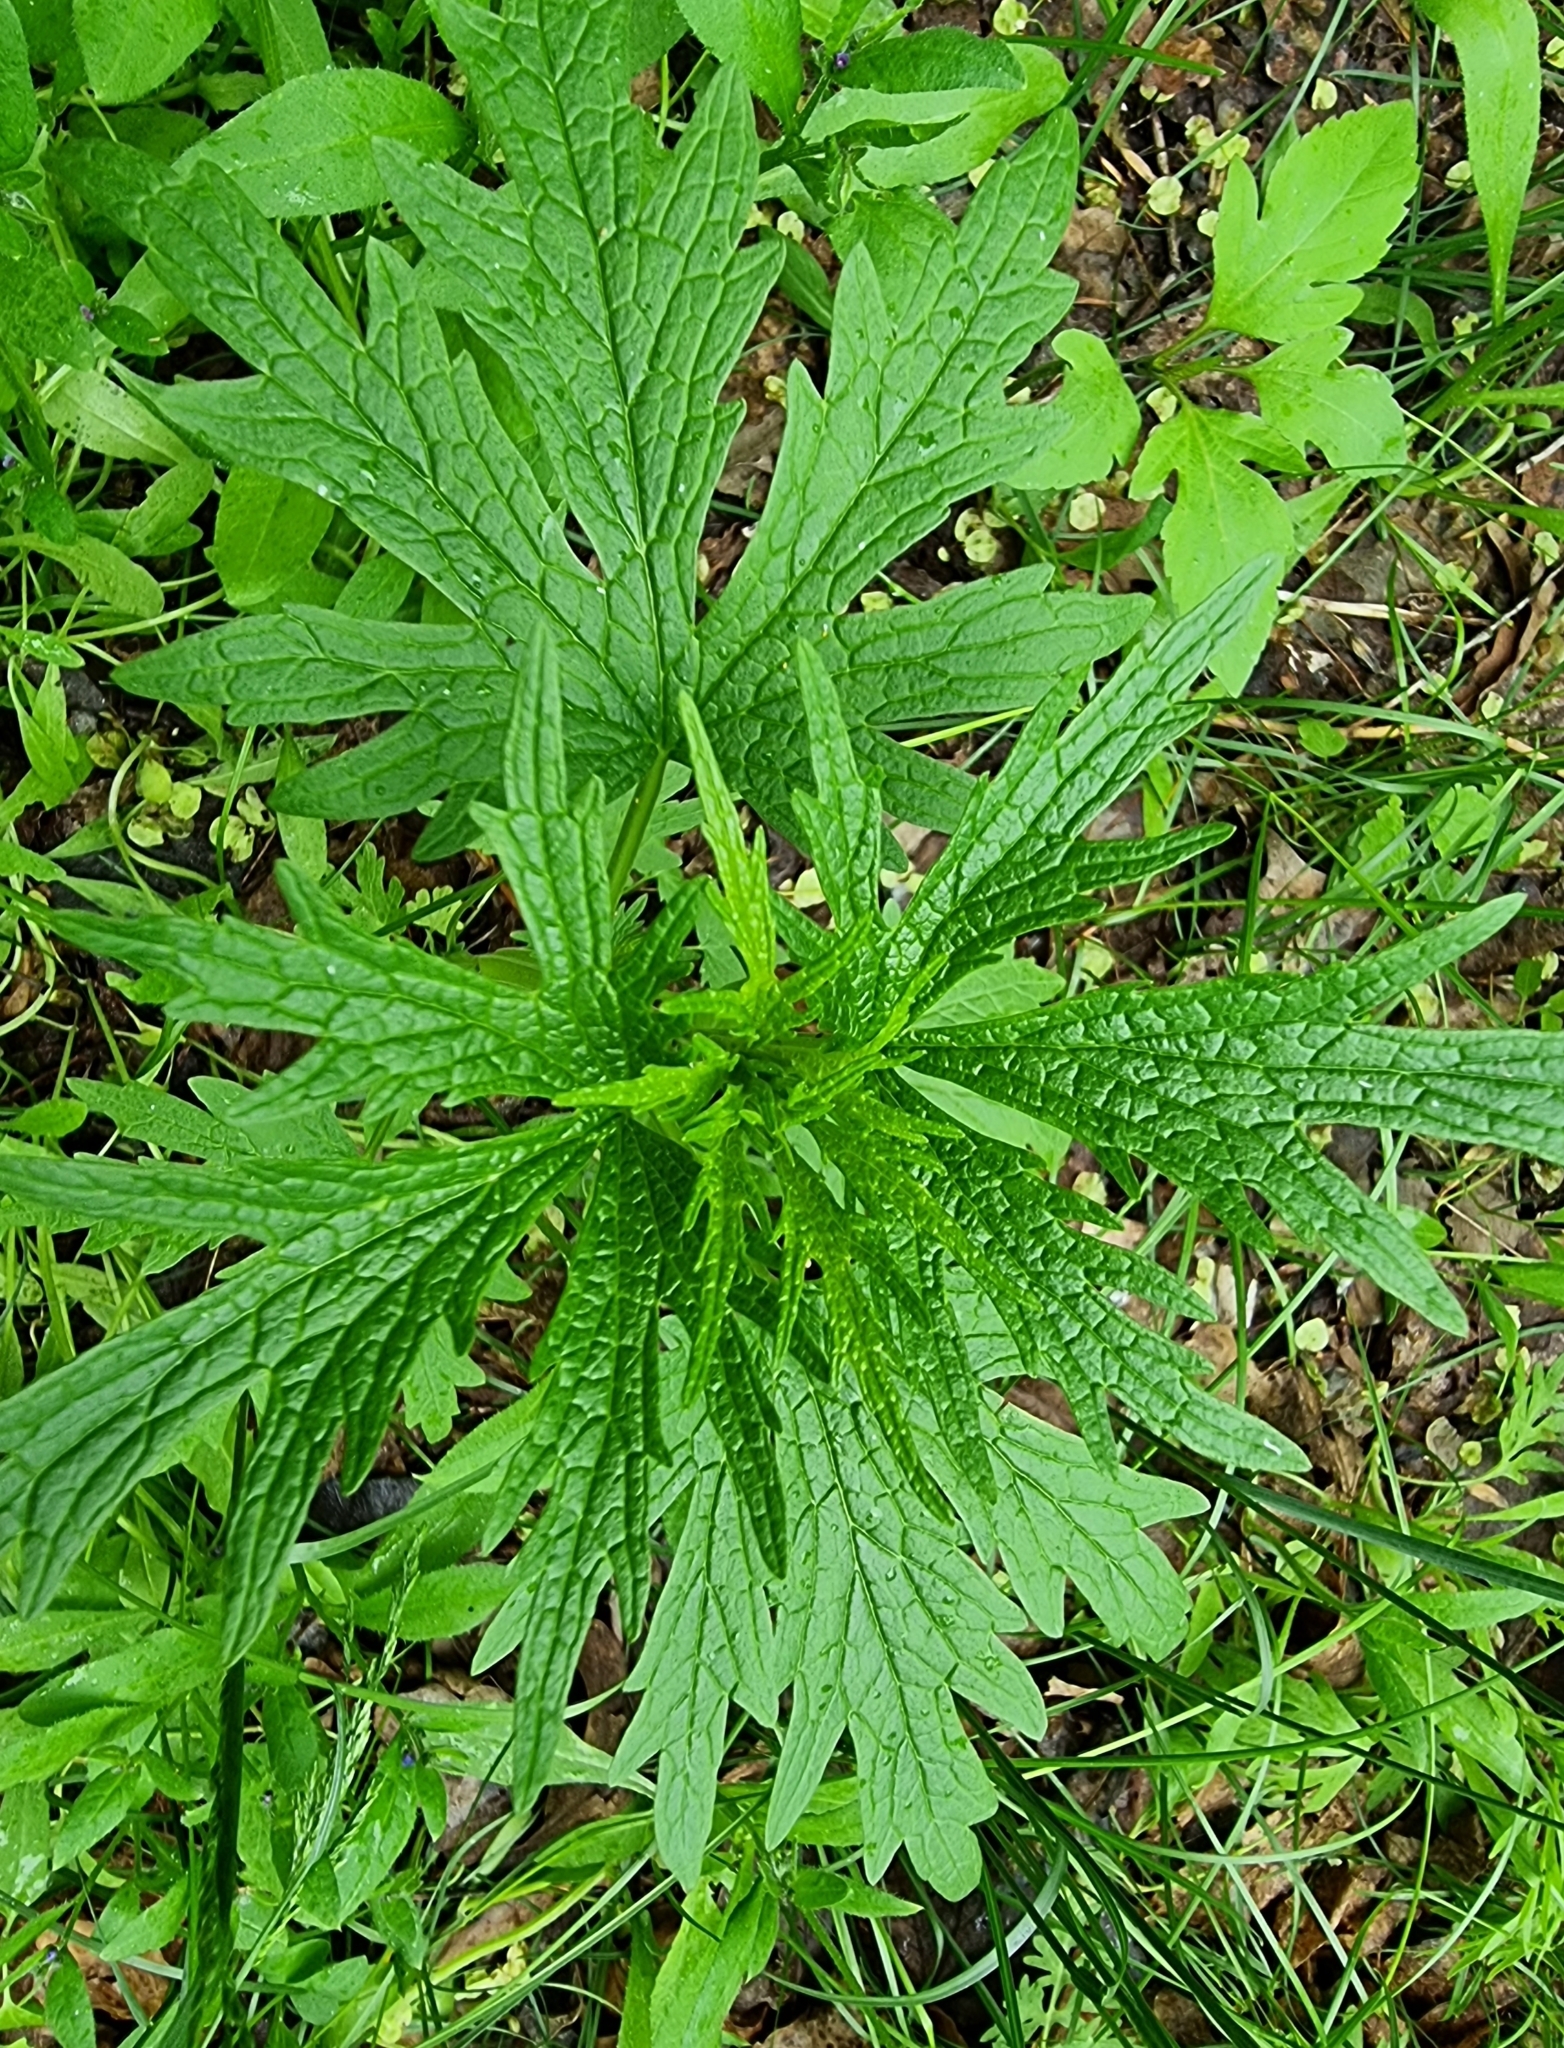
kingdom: Plantae
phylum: Tracheophyta
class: Magnoliopsida
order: Lamiales
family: Lamiaceae
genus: Leonurus
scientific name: Leonurus glaucescens
